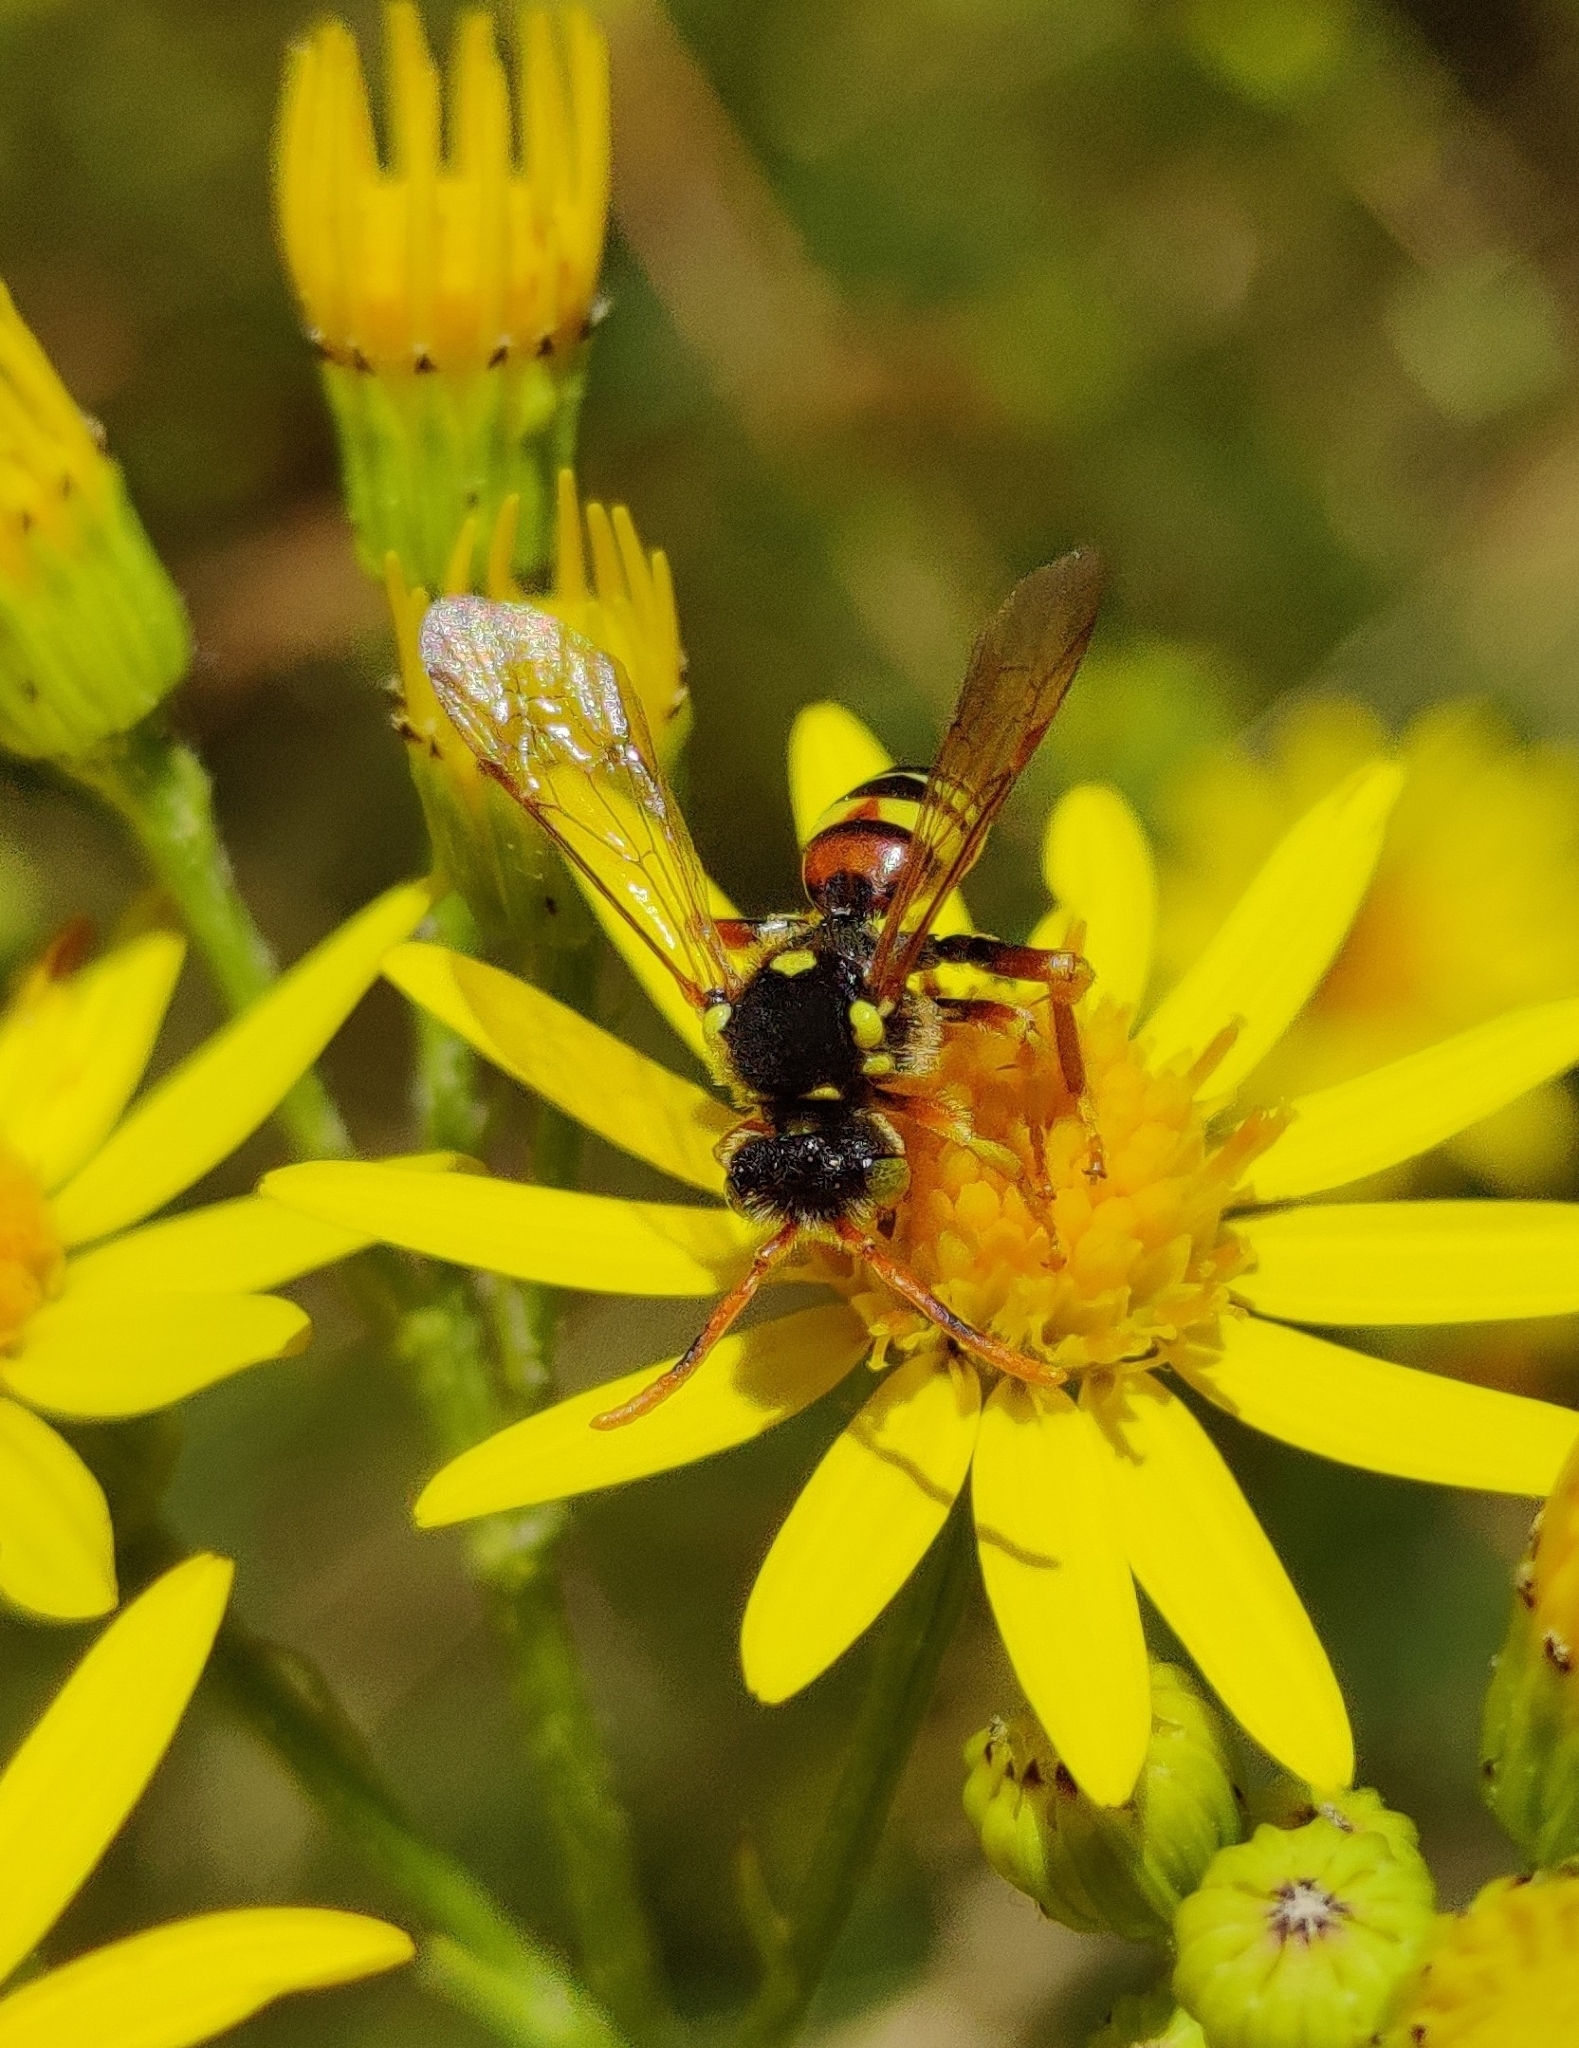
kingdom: Animalia
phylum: Arthropoda
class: Insecta
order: Hymenoptera
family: Apidae
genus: Nomada
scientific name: Nomada fucata
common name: Painted nomad bee
